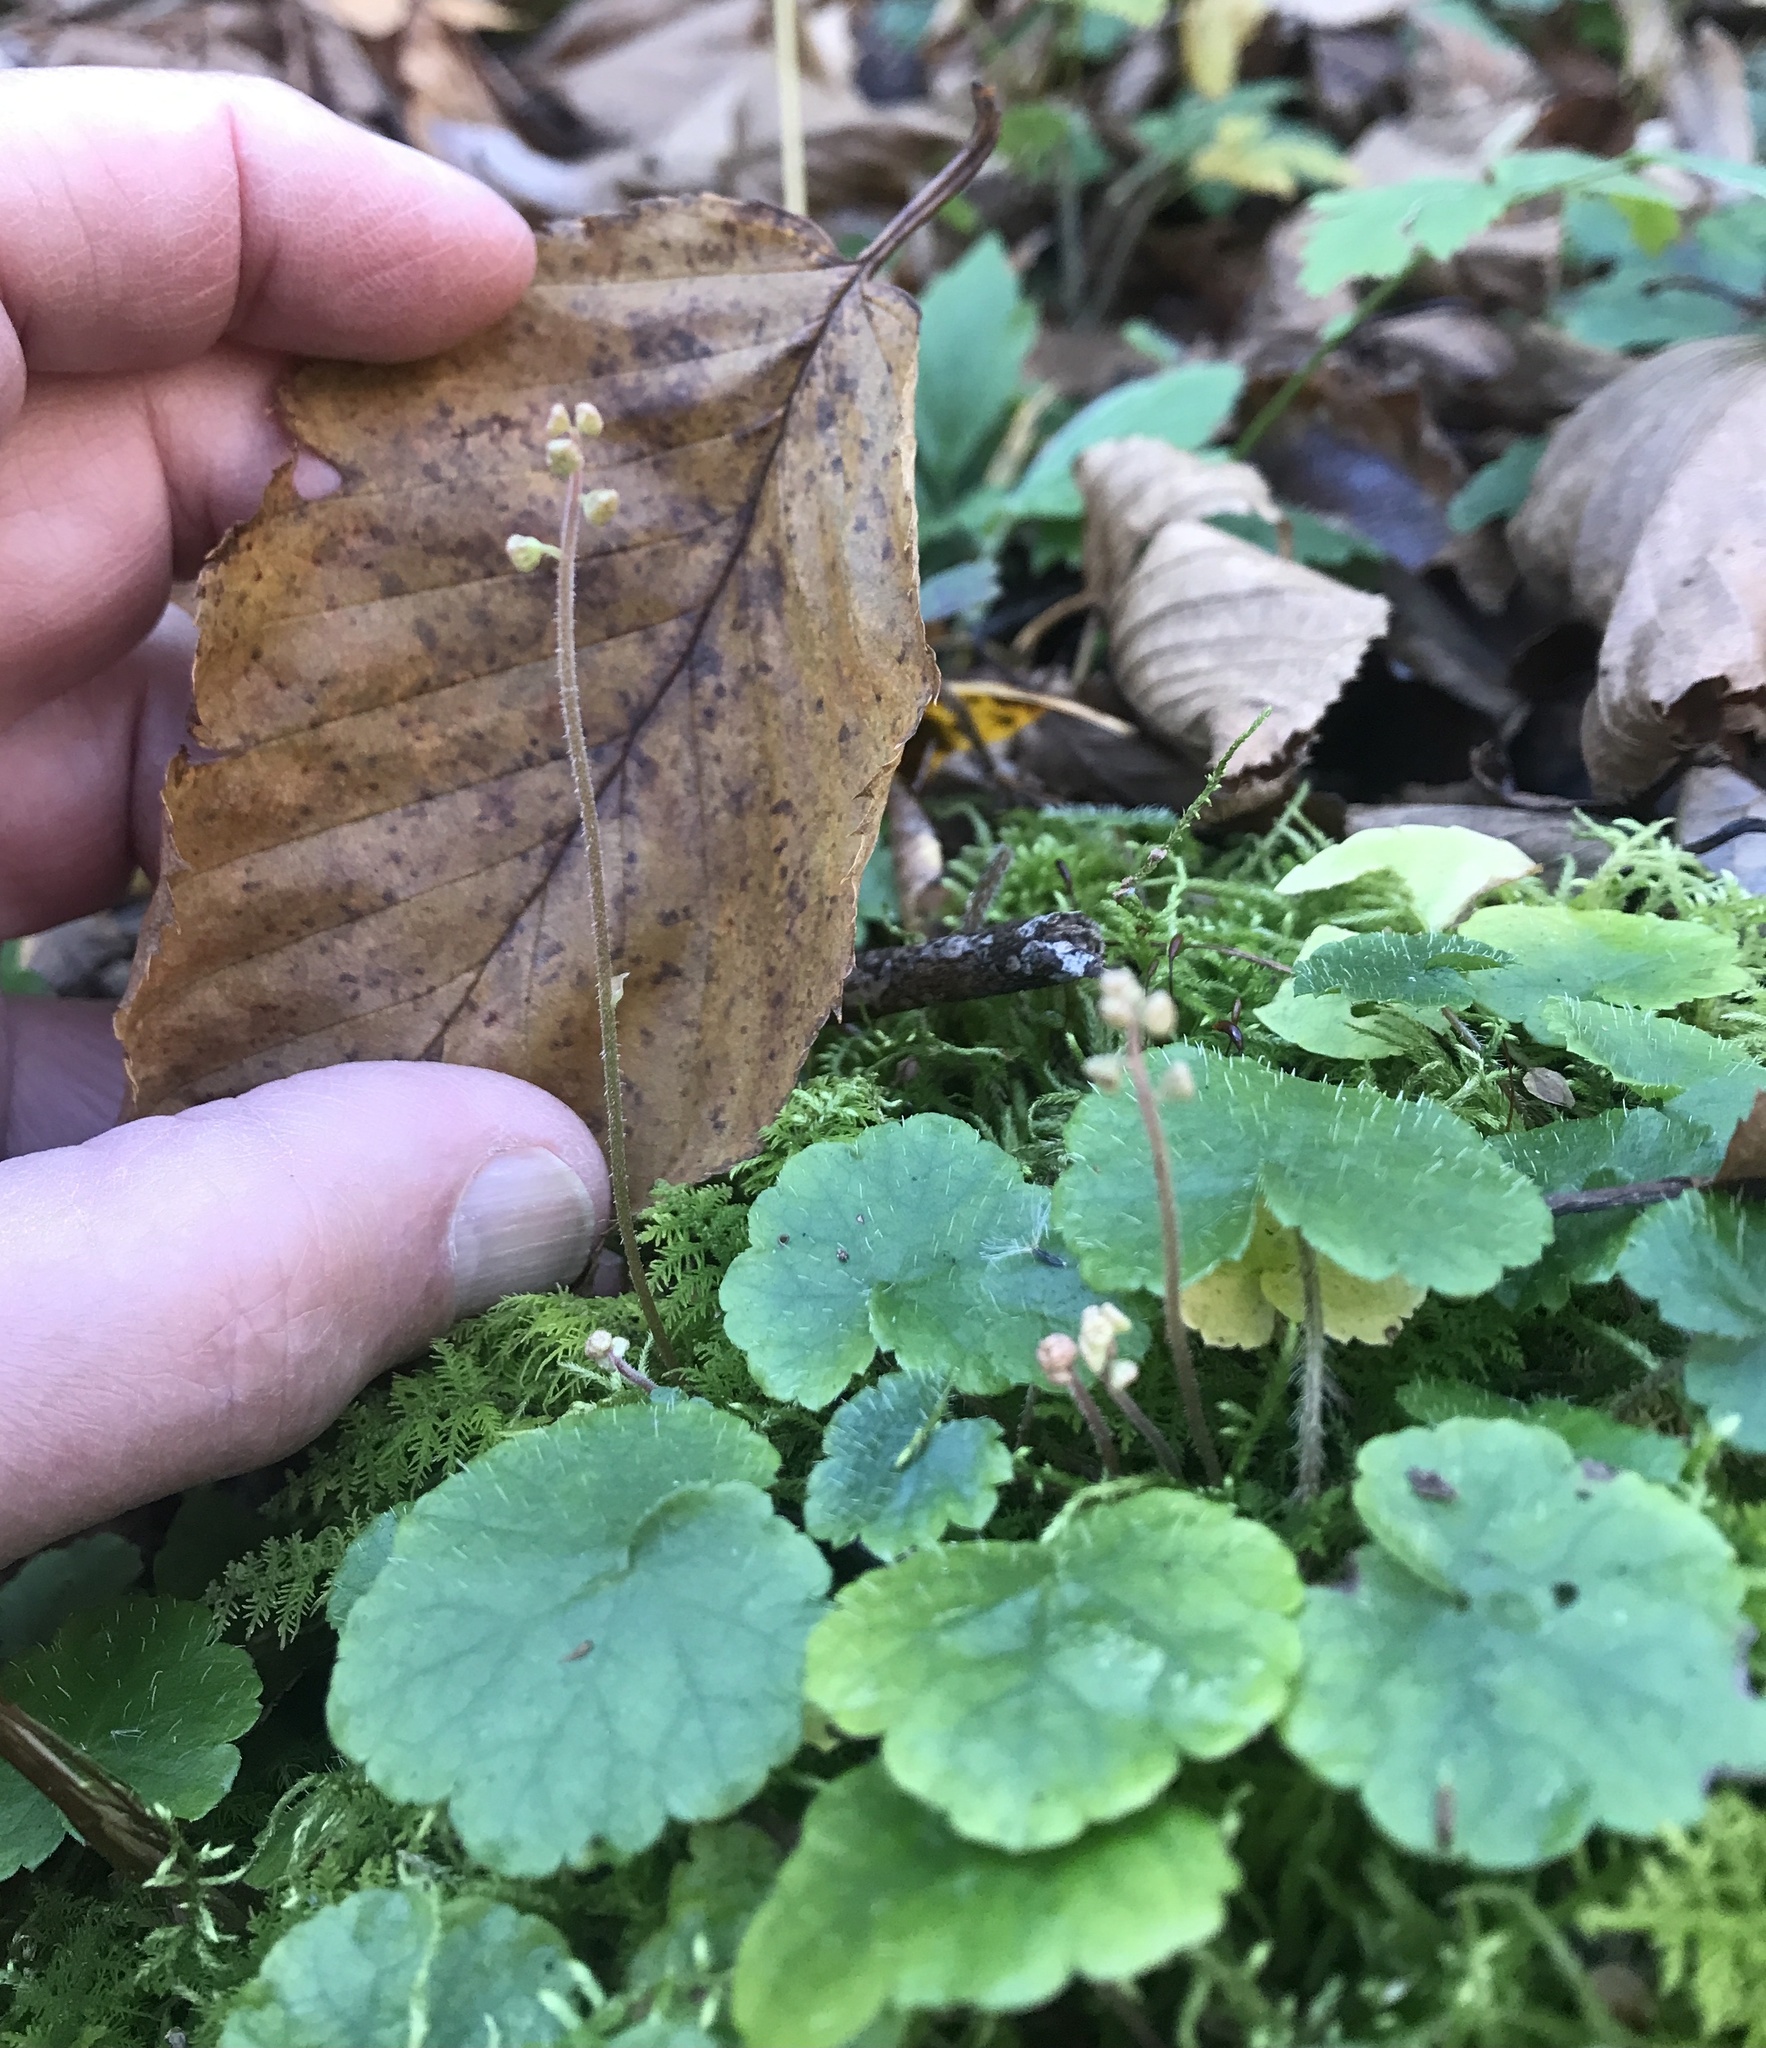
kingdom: Plantae
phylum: Tracheophyta
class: Magnoliopsida
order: Saxifragales
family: Saxifragaceae
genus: Mitella
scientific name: Mitella nuda
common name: Bare-stemmed bishop's-cap
